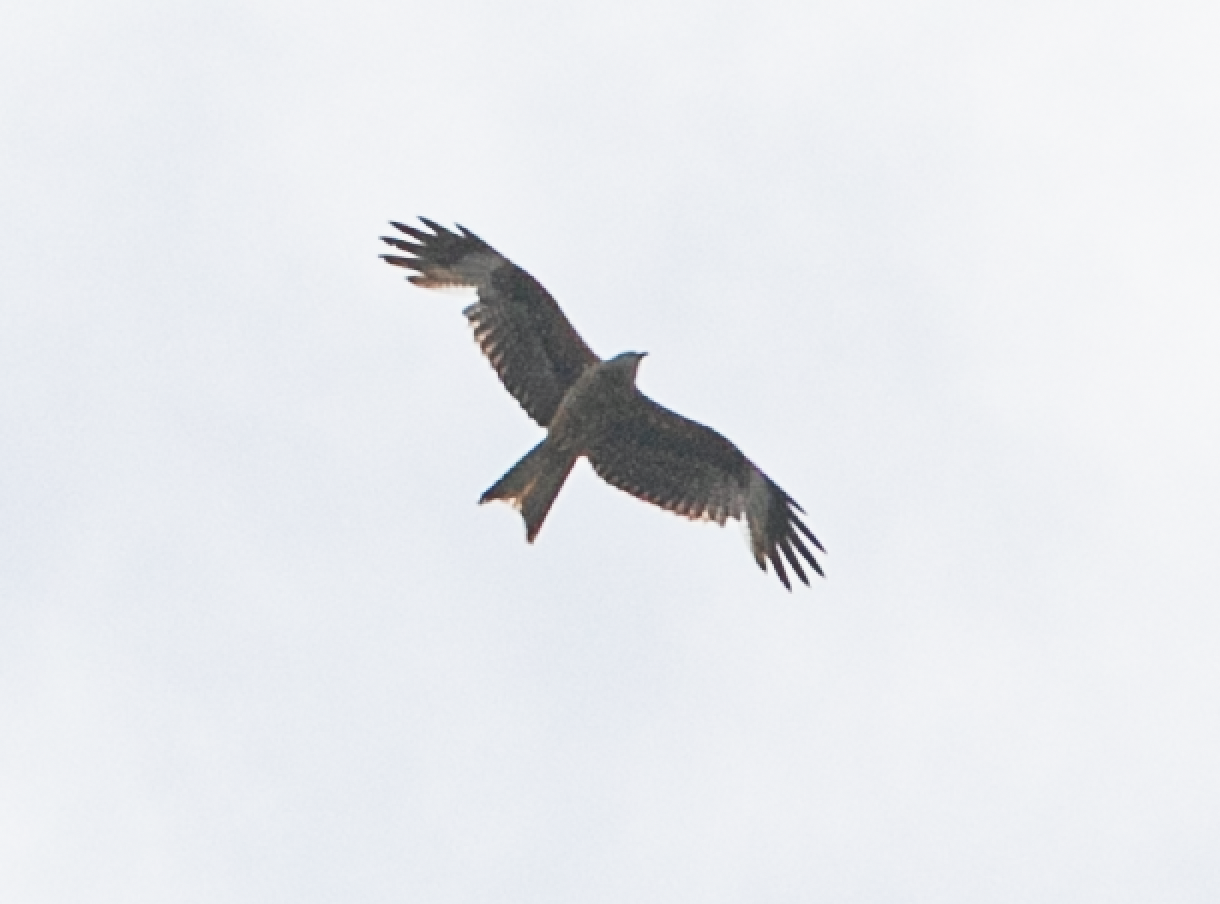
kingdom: Animalia
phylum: Chordata
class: Aves
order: Accipitriformes
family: Accipitridae
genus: Milvus
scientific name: Milvus milvus
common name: Red kite
